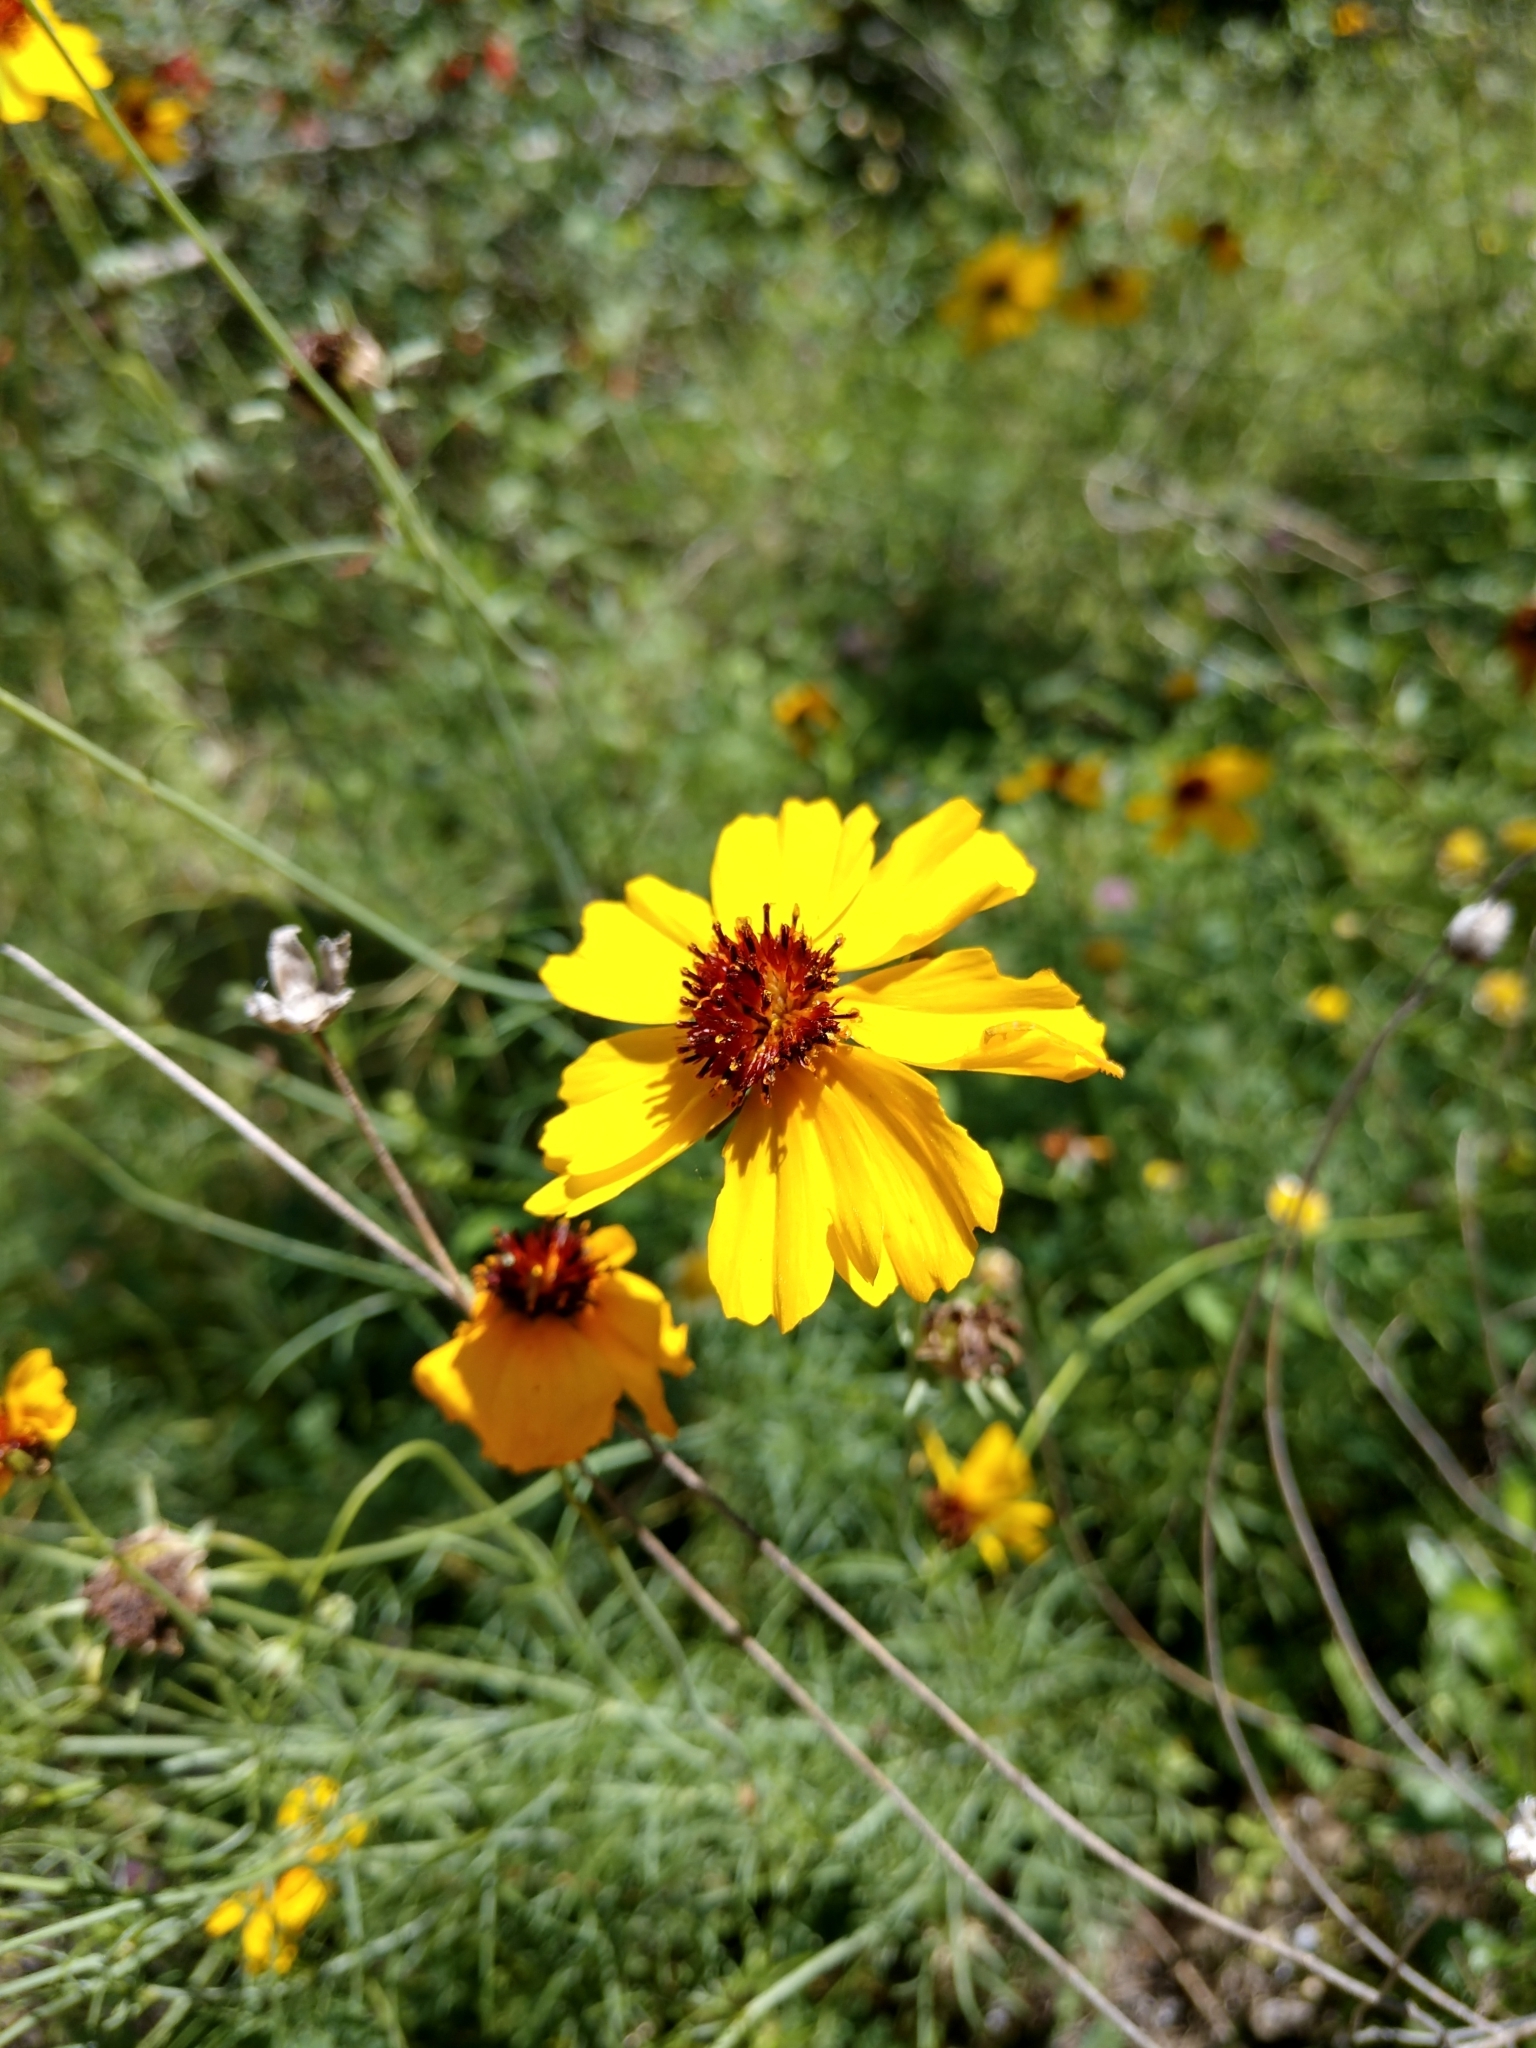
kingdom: Plantae
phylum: Tracheophyta
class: Magnoliopsida
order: Asterales
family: Asteraceae
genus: Thelesperma
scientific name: Thelesperma filifolium
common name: Stiff greenthread
